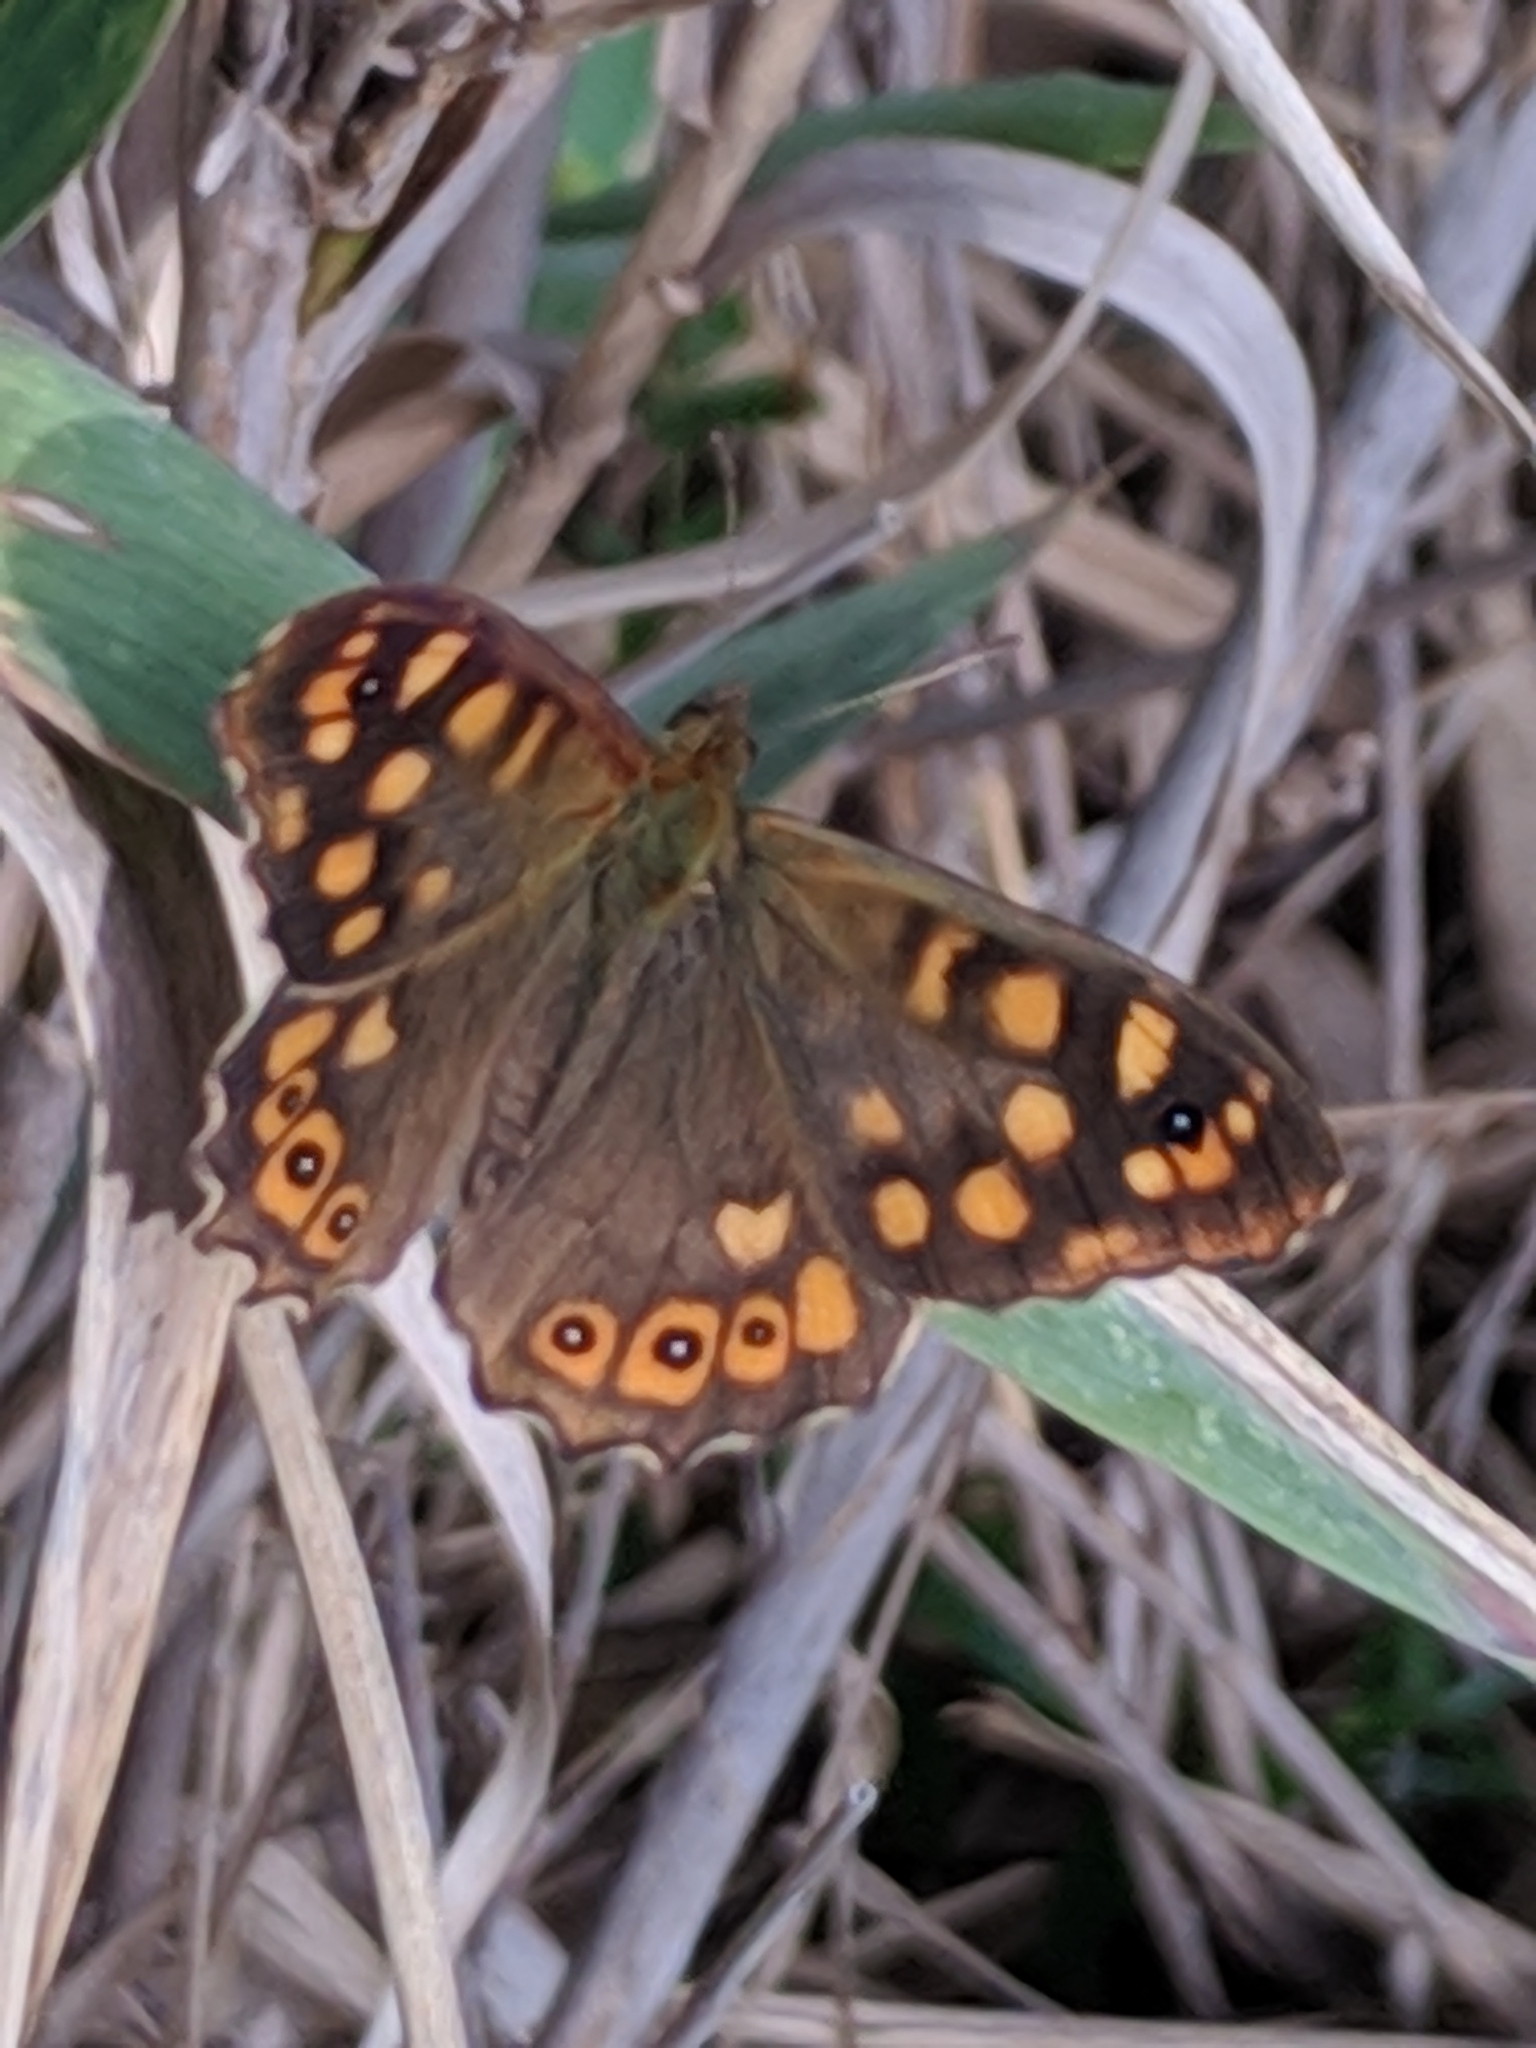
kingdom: Animalia
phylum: Arthropoda
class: Insecta
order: Lepidoptera
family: Nymphalidae
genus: Pararge
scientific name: Pararge aegeria
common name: Speckled wood
